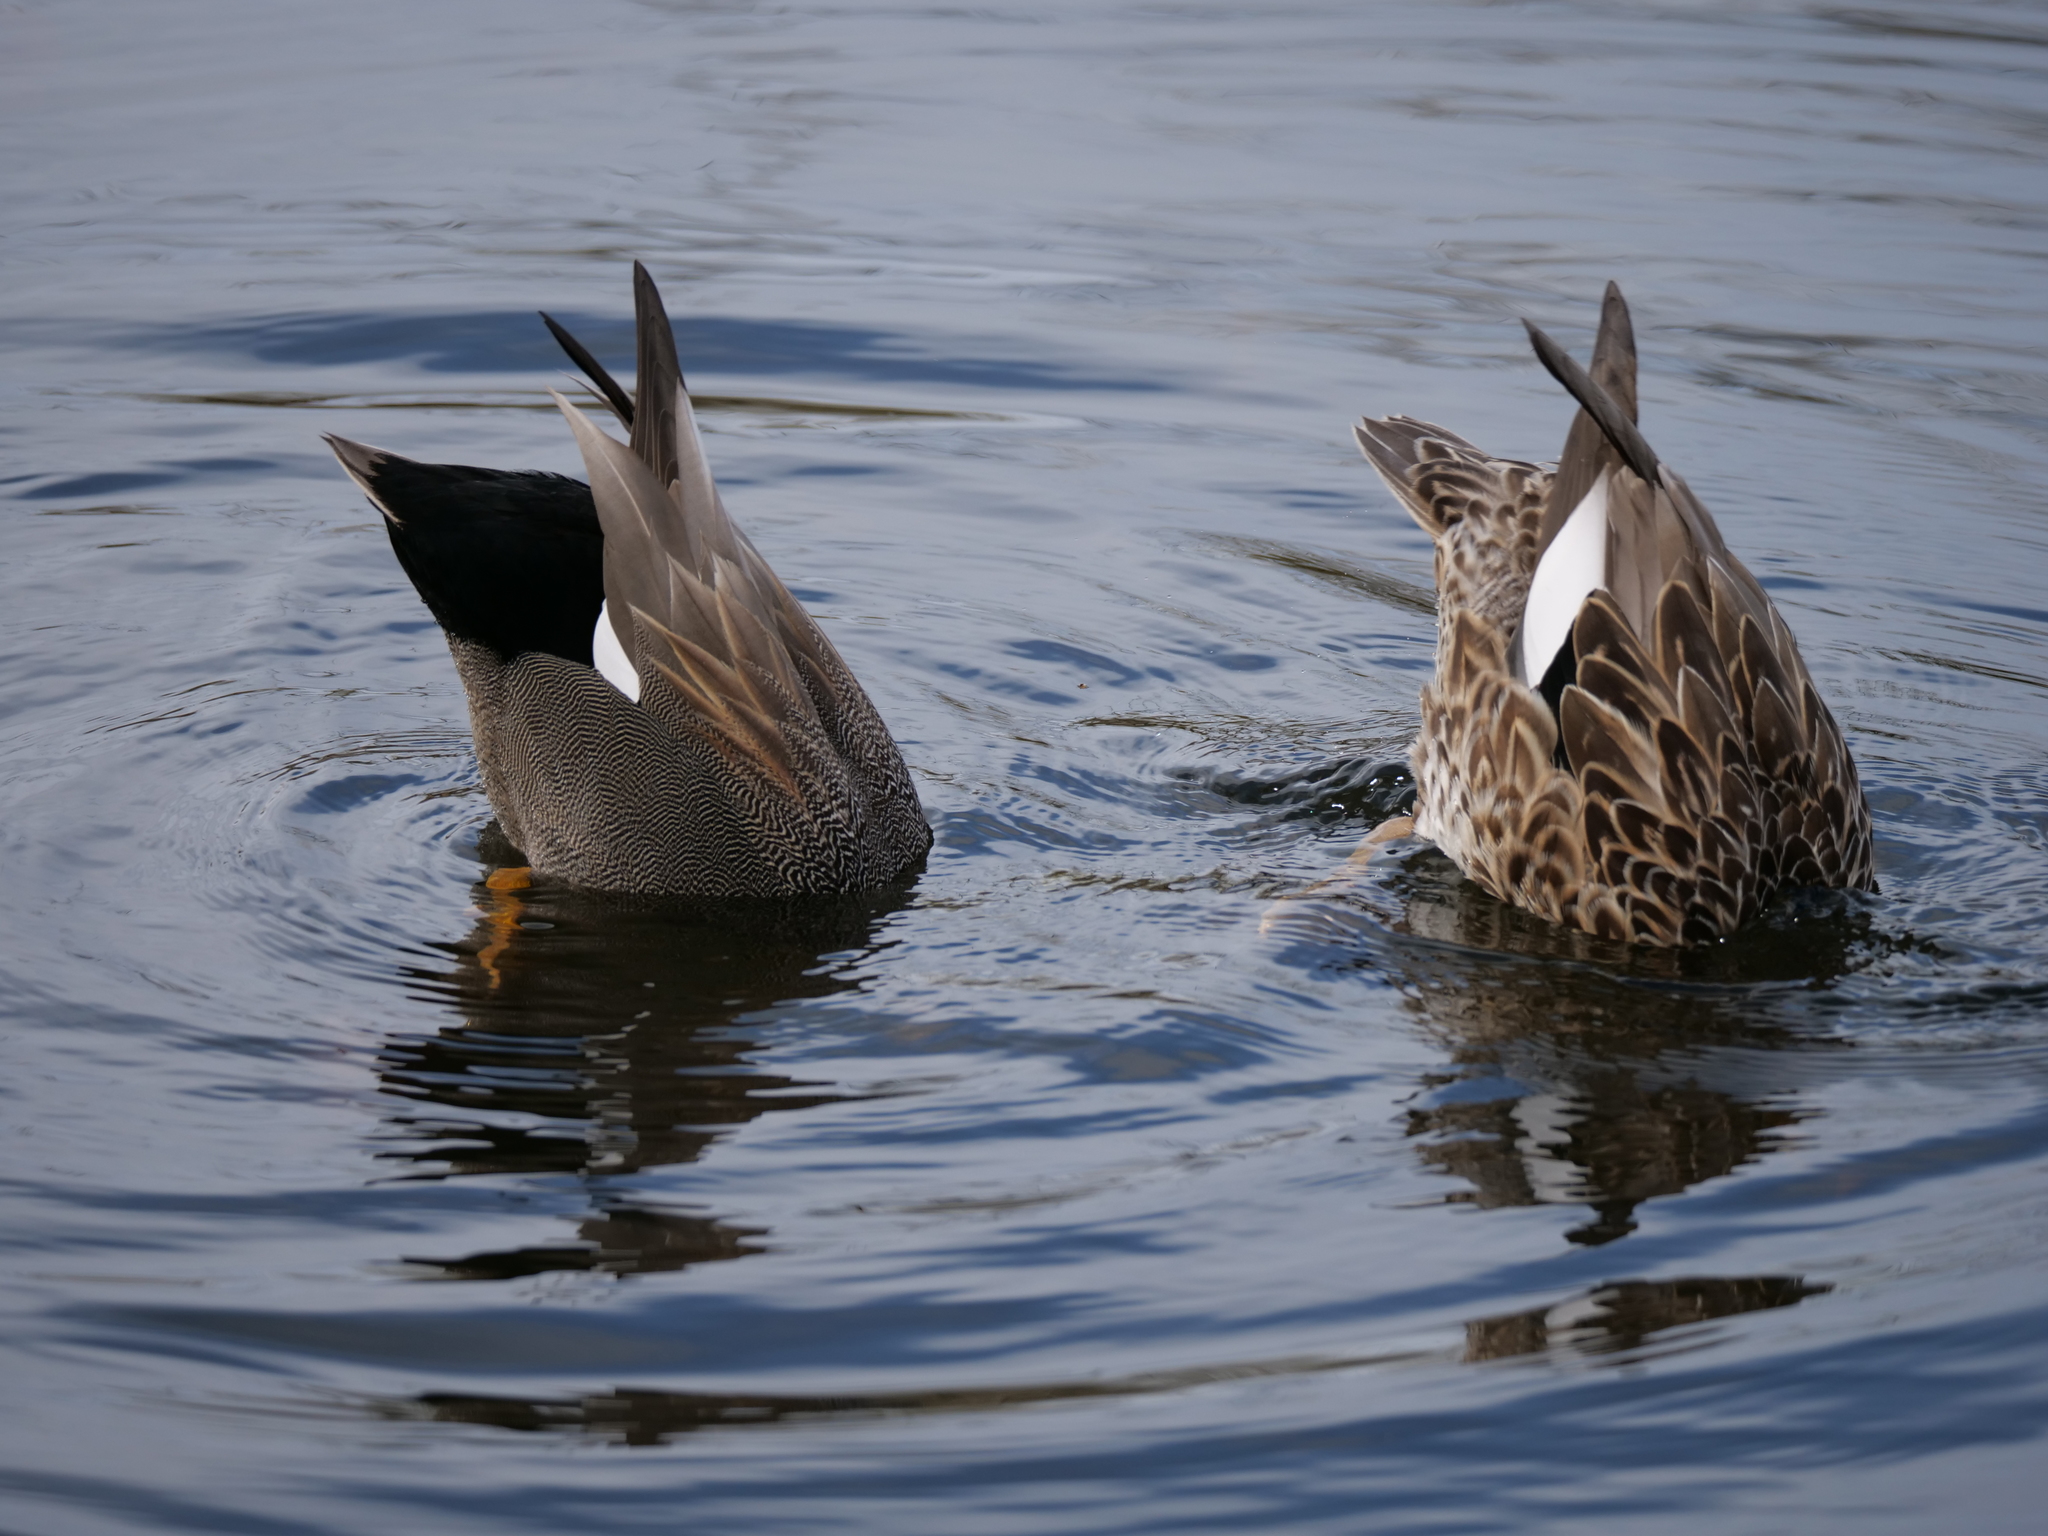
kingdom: Animalia
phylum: Chordata
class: Aves
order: Anseriformes
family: Anatidae
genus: Mareca
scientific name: Mareca strepera
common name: Gadwall
